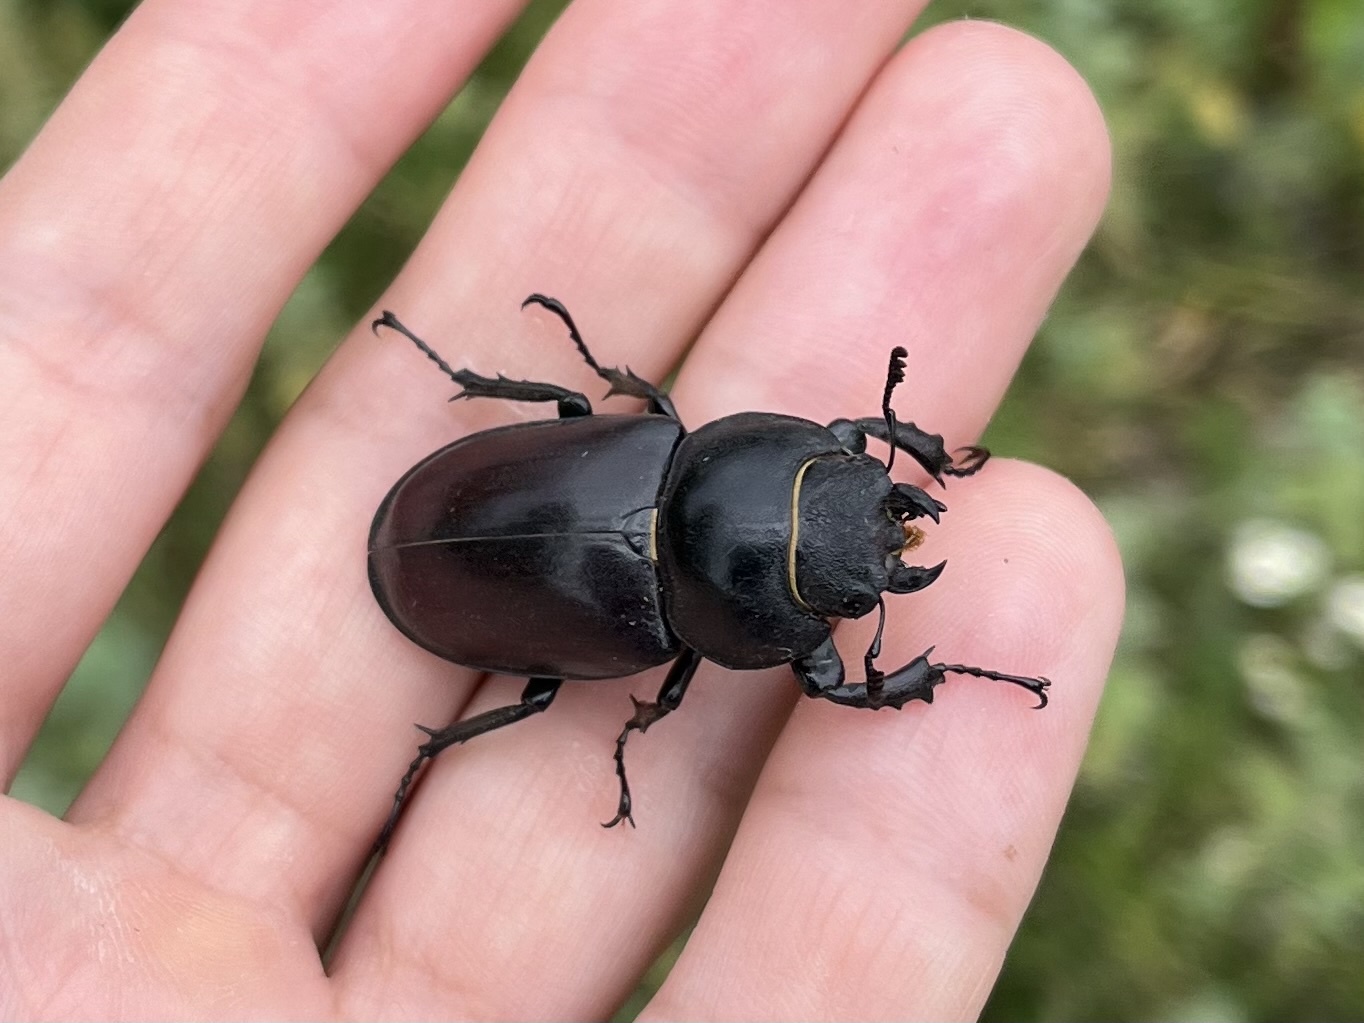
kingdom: Animalia
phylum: Arthropoda
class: Insecta
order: Coleoptera
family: Lucanidae
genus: Lucanus
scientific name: Lucanus cervus
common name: Stag beetle
